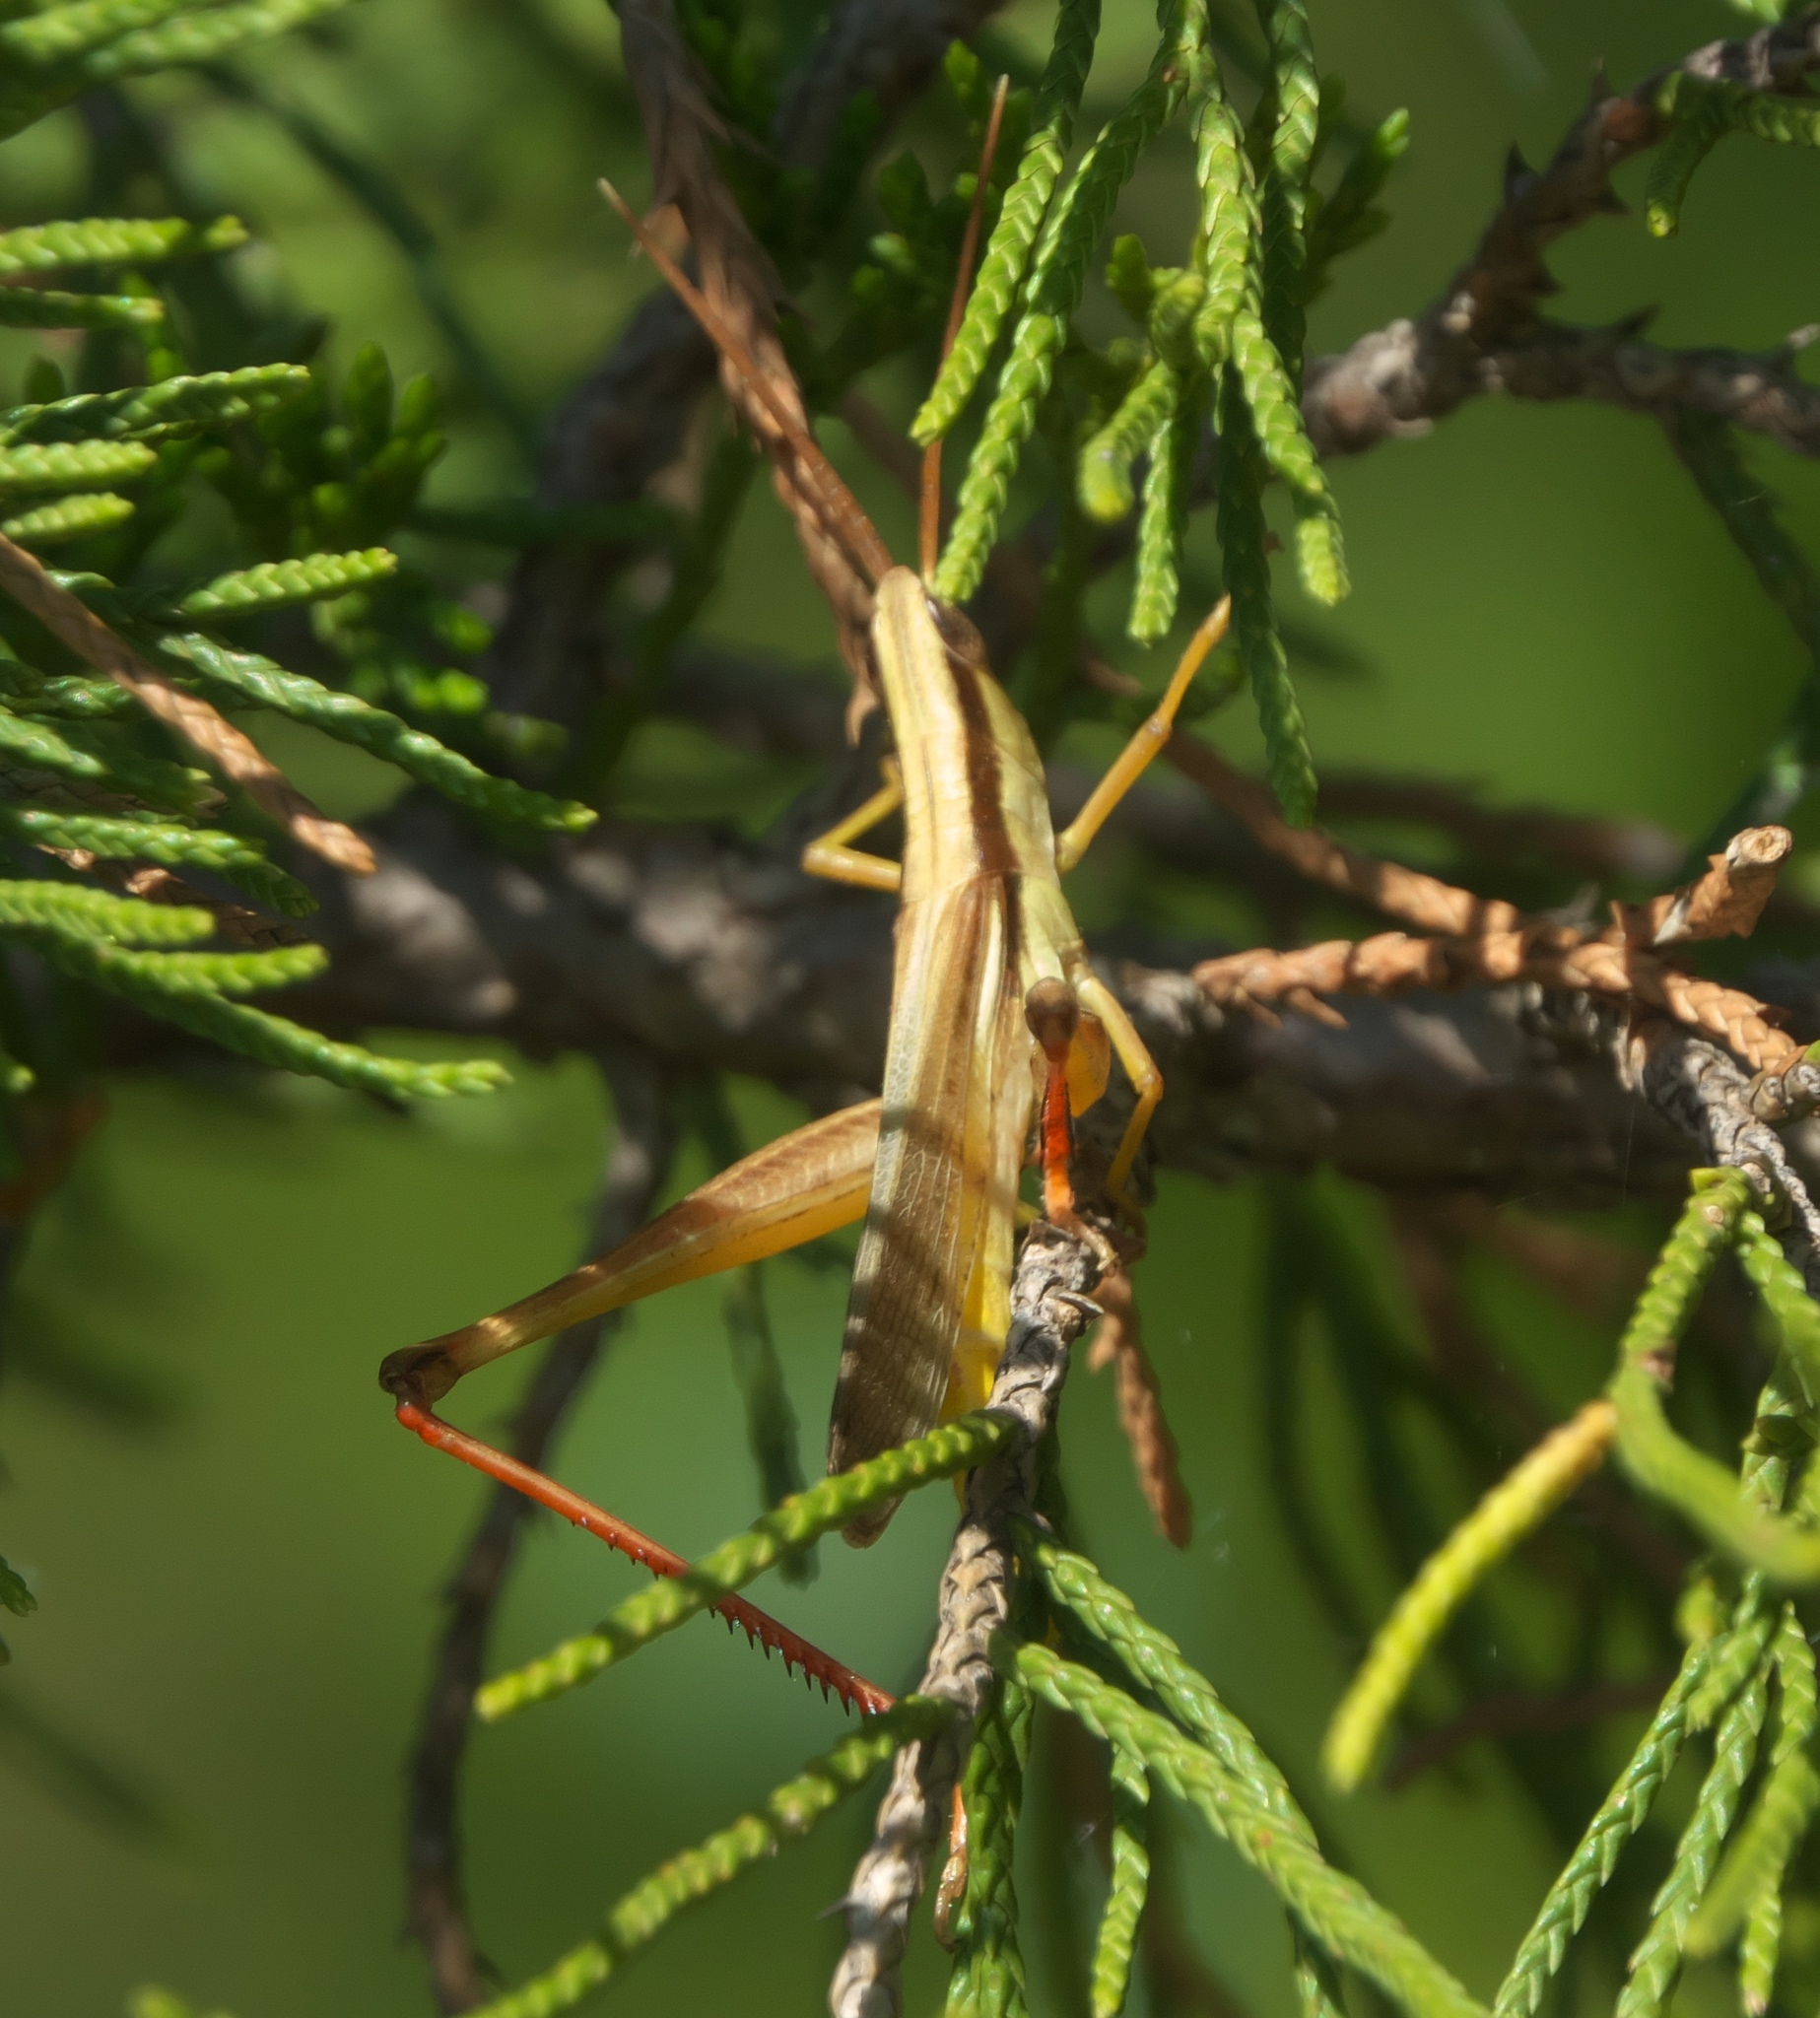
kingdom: Animalia
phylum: Arthropoda
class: Insecta
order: Orthoptera
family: Acrididae
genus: Mermiria
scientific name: Mermiria bivittata
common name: Two-striped mermiria grasshopper
